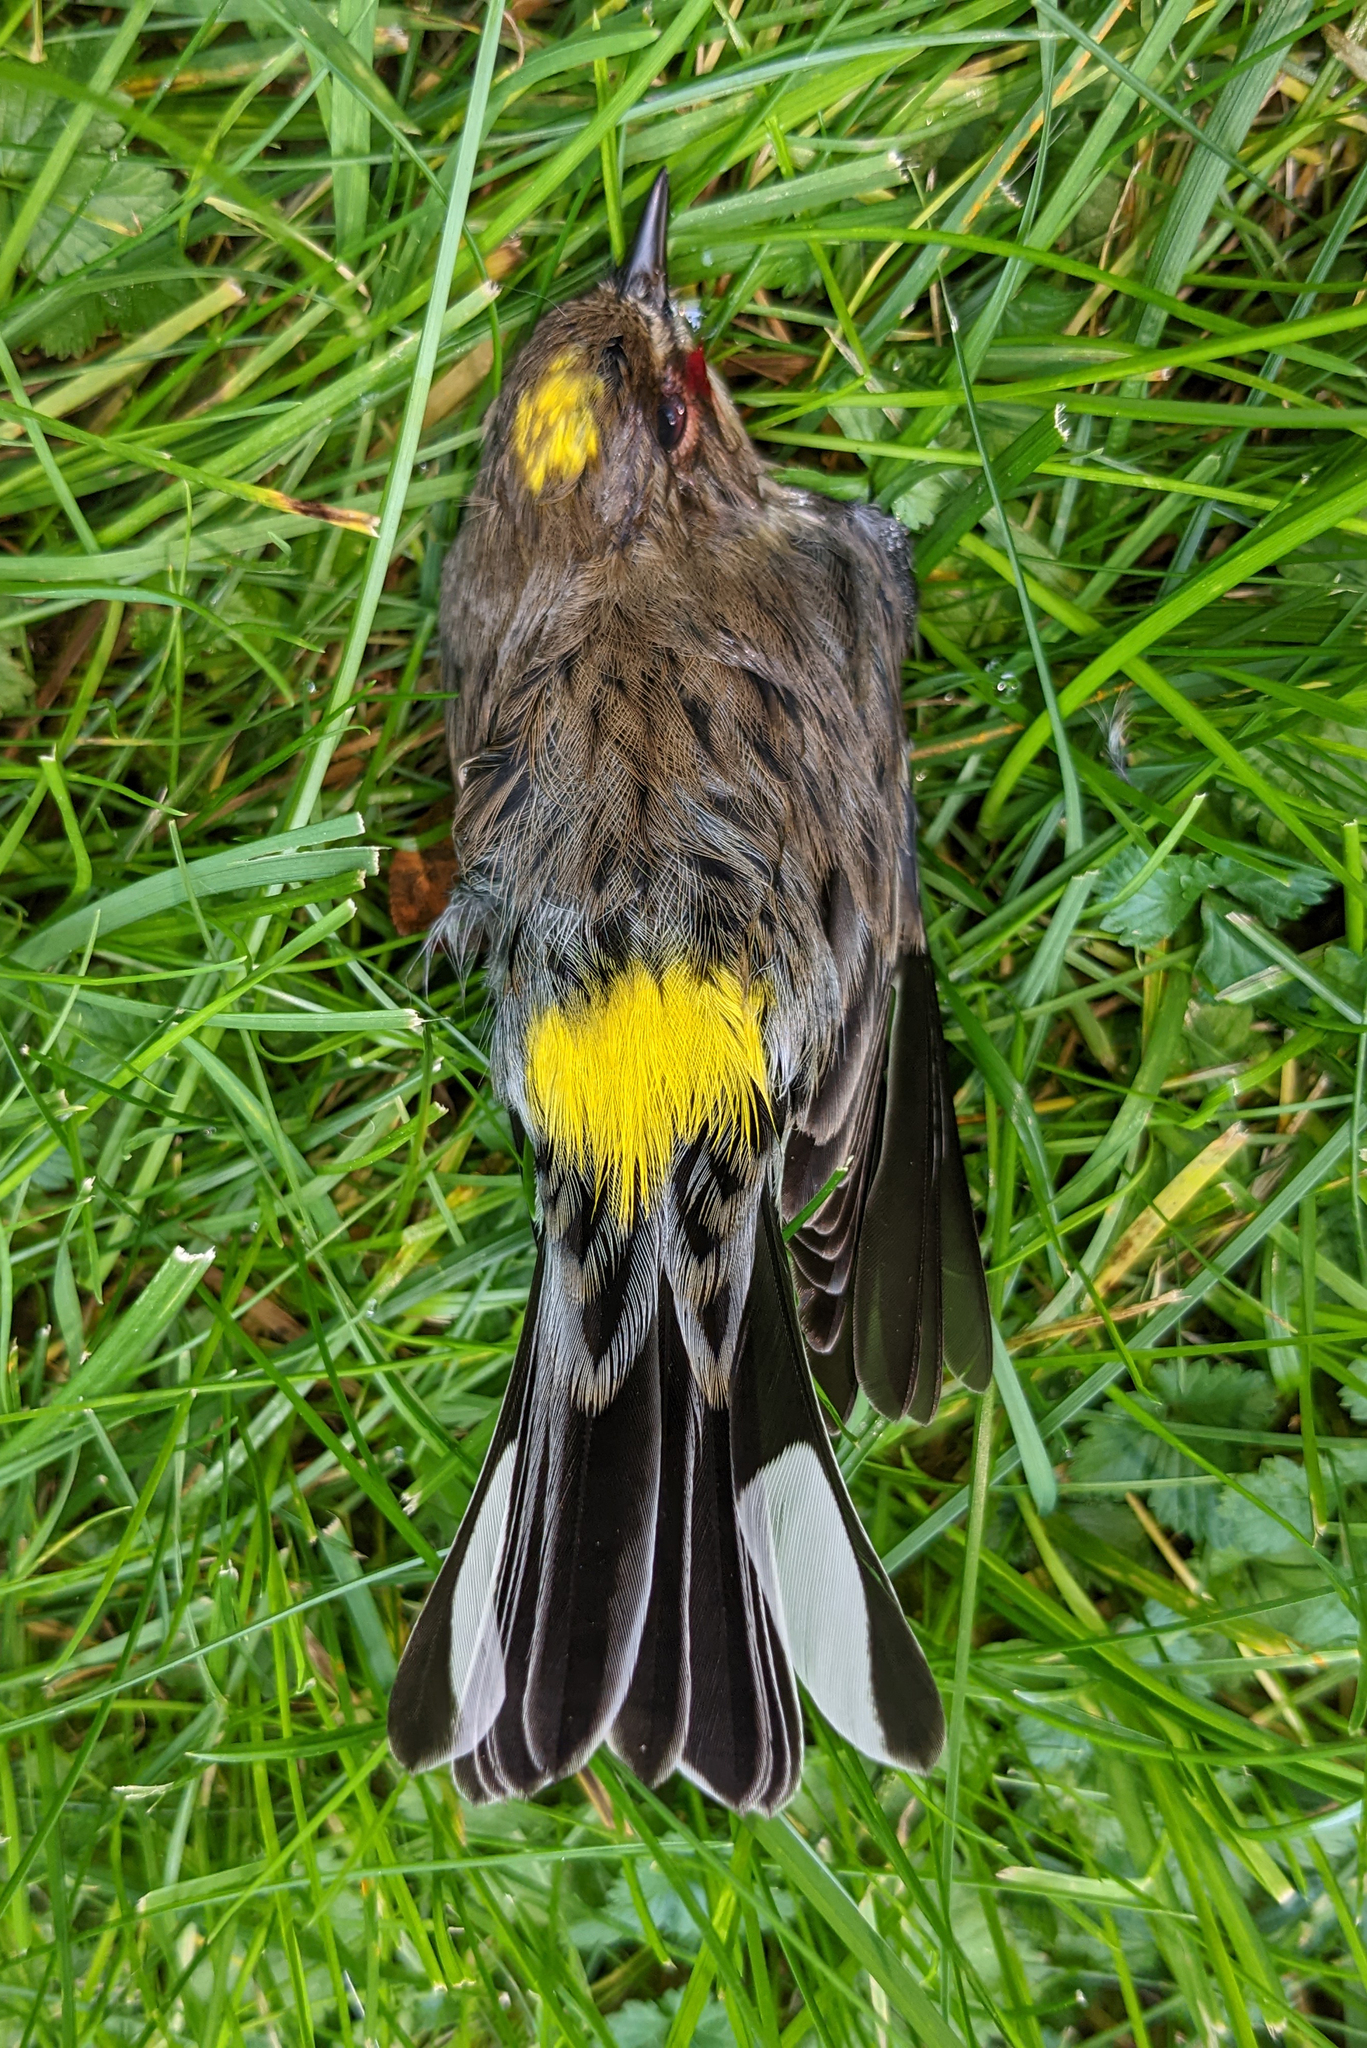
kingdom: Animalia
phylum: Chordata
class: Aves
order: Passeriformes
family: Parulidae
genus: Setophaga
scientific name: Setophaga coronata
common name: Myrtle warbler
